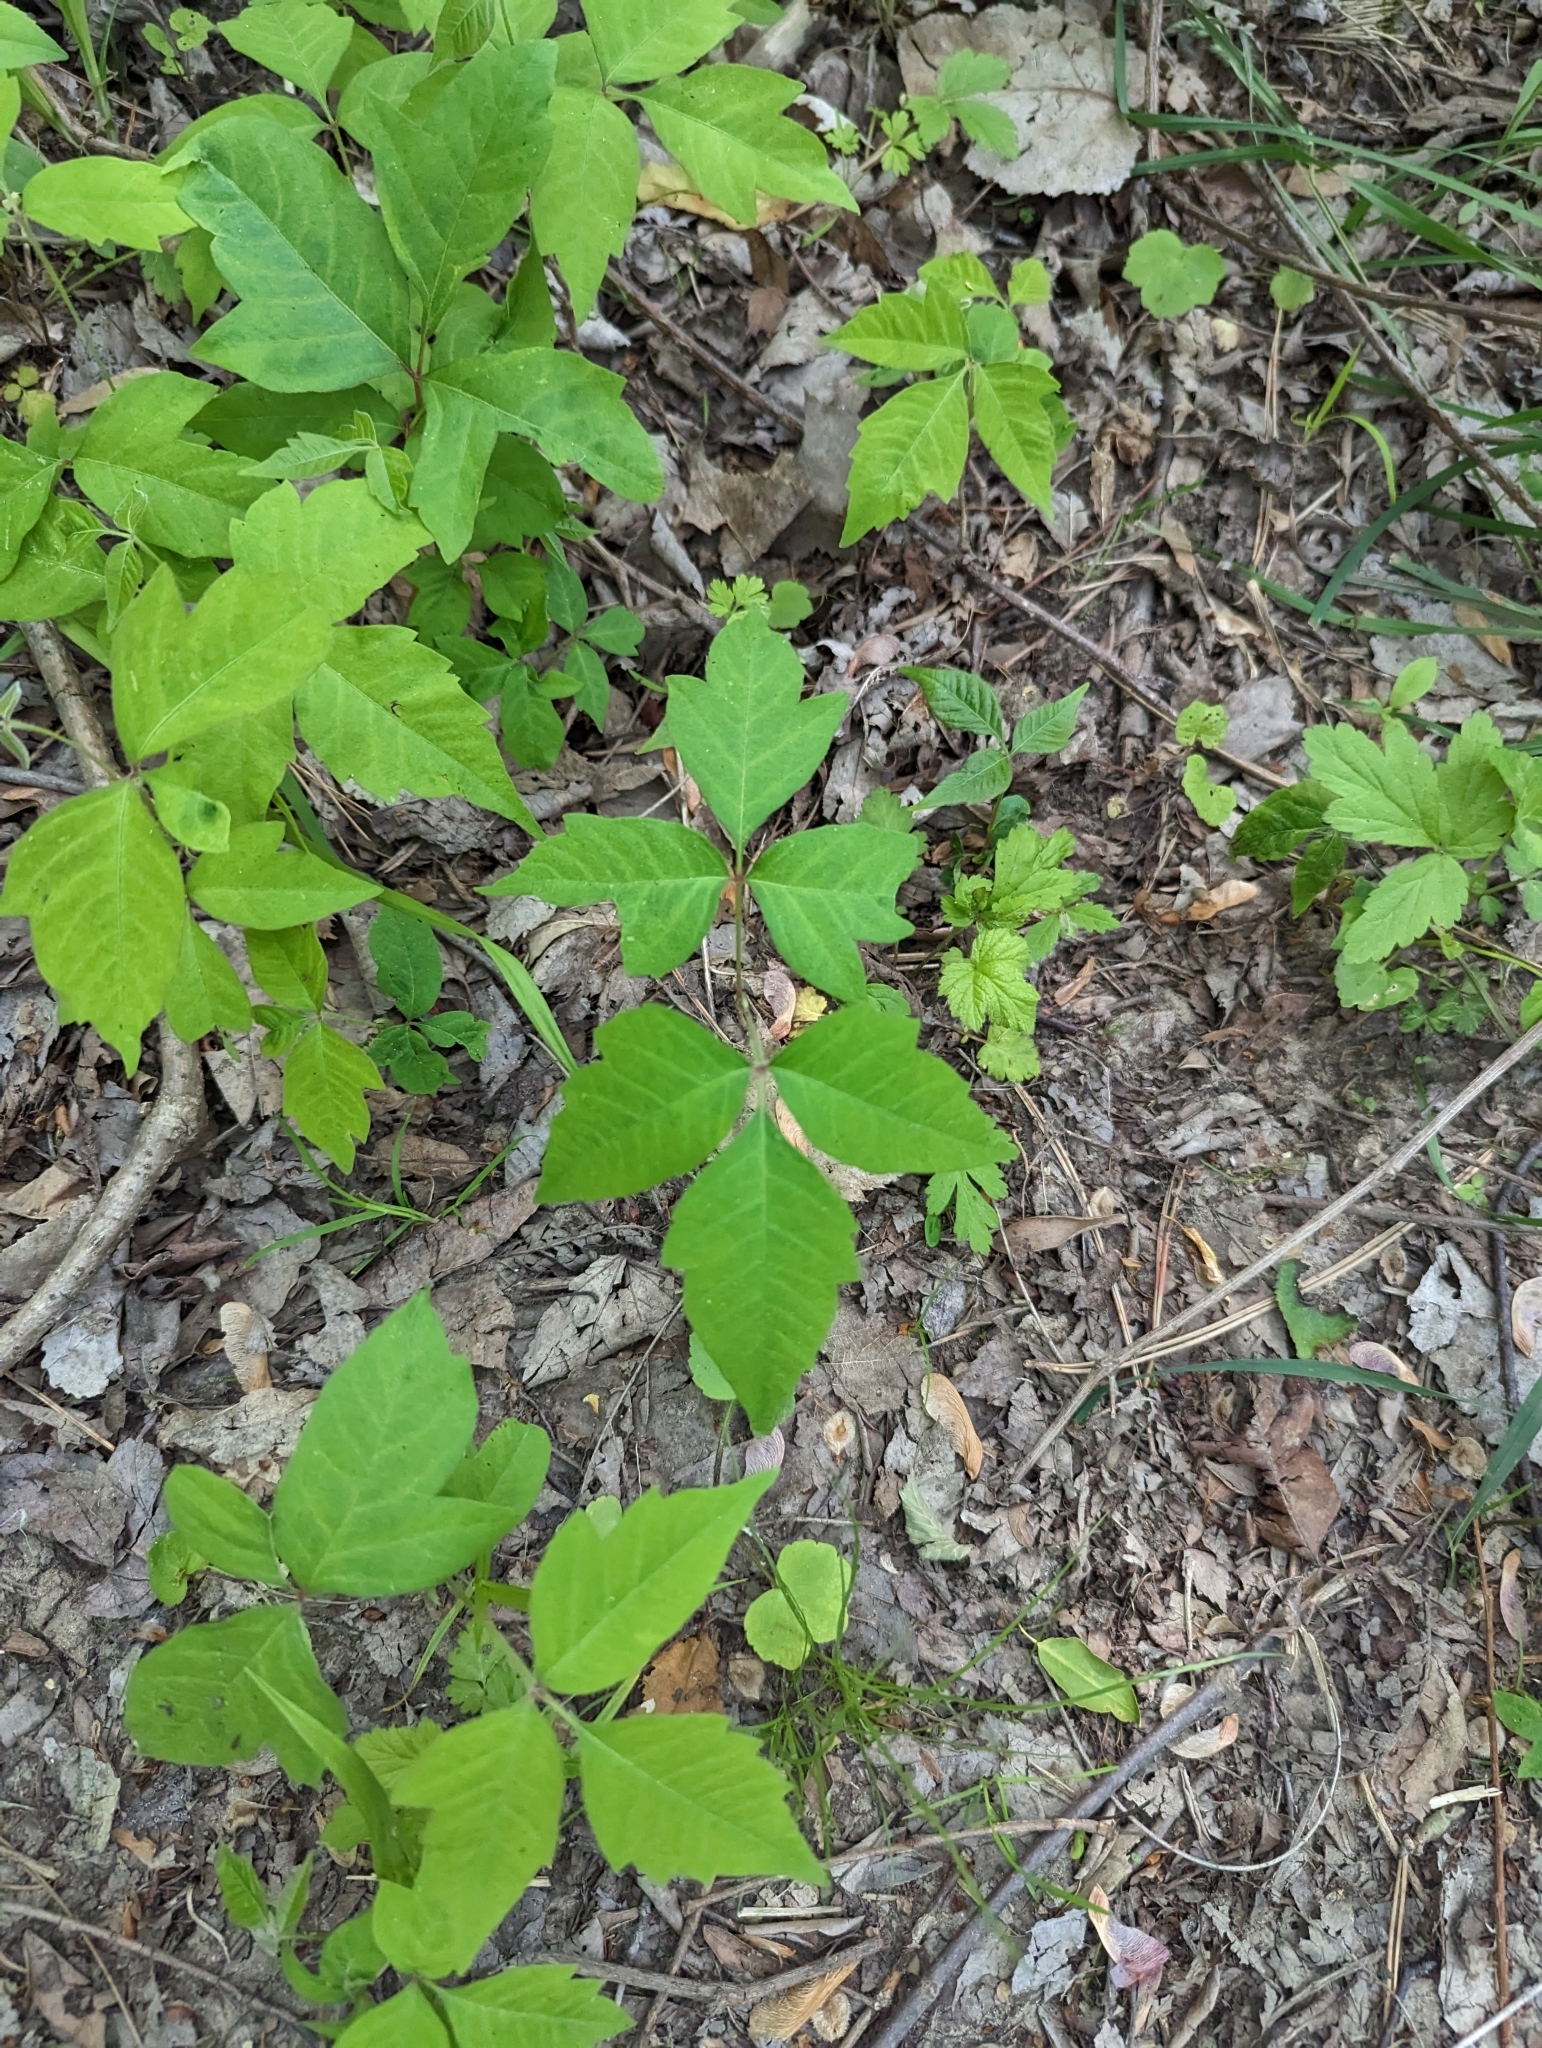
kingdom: Plantae
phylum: Tracheophyta
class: Magnoliopsida
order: Sapindales
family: Anacardiaceae
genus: Toxicodendron
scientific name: Toxicodendron radicans
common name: Poison ivy
